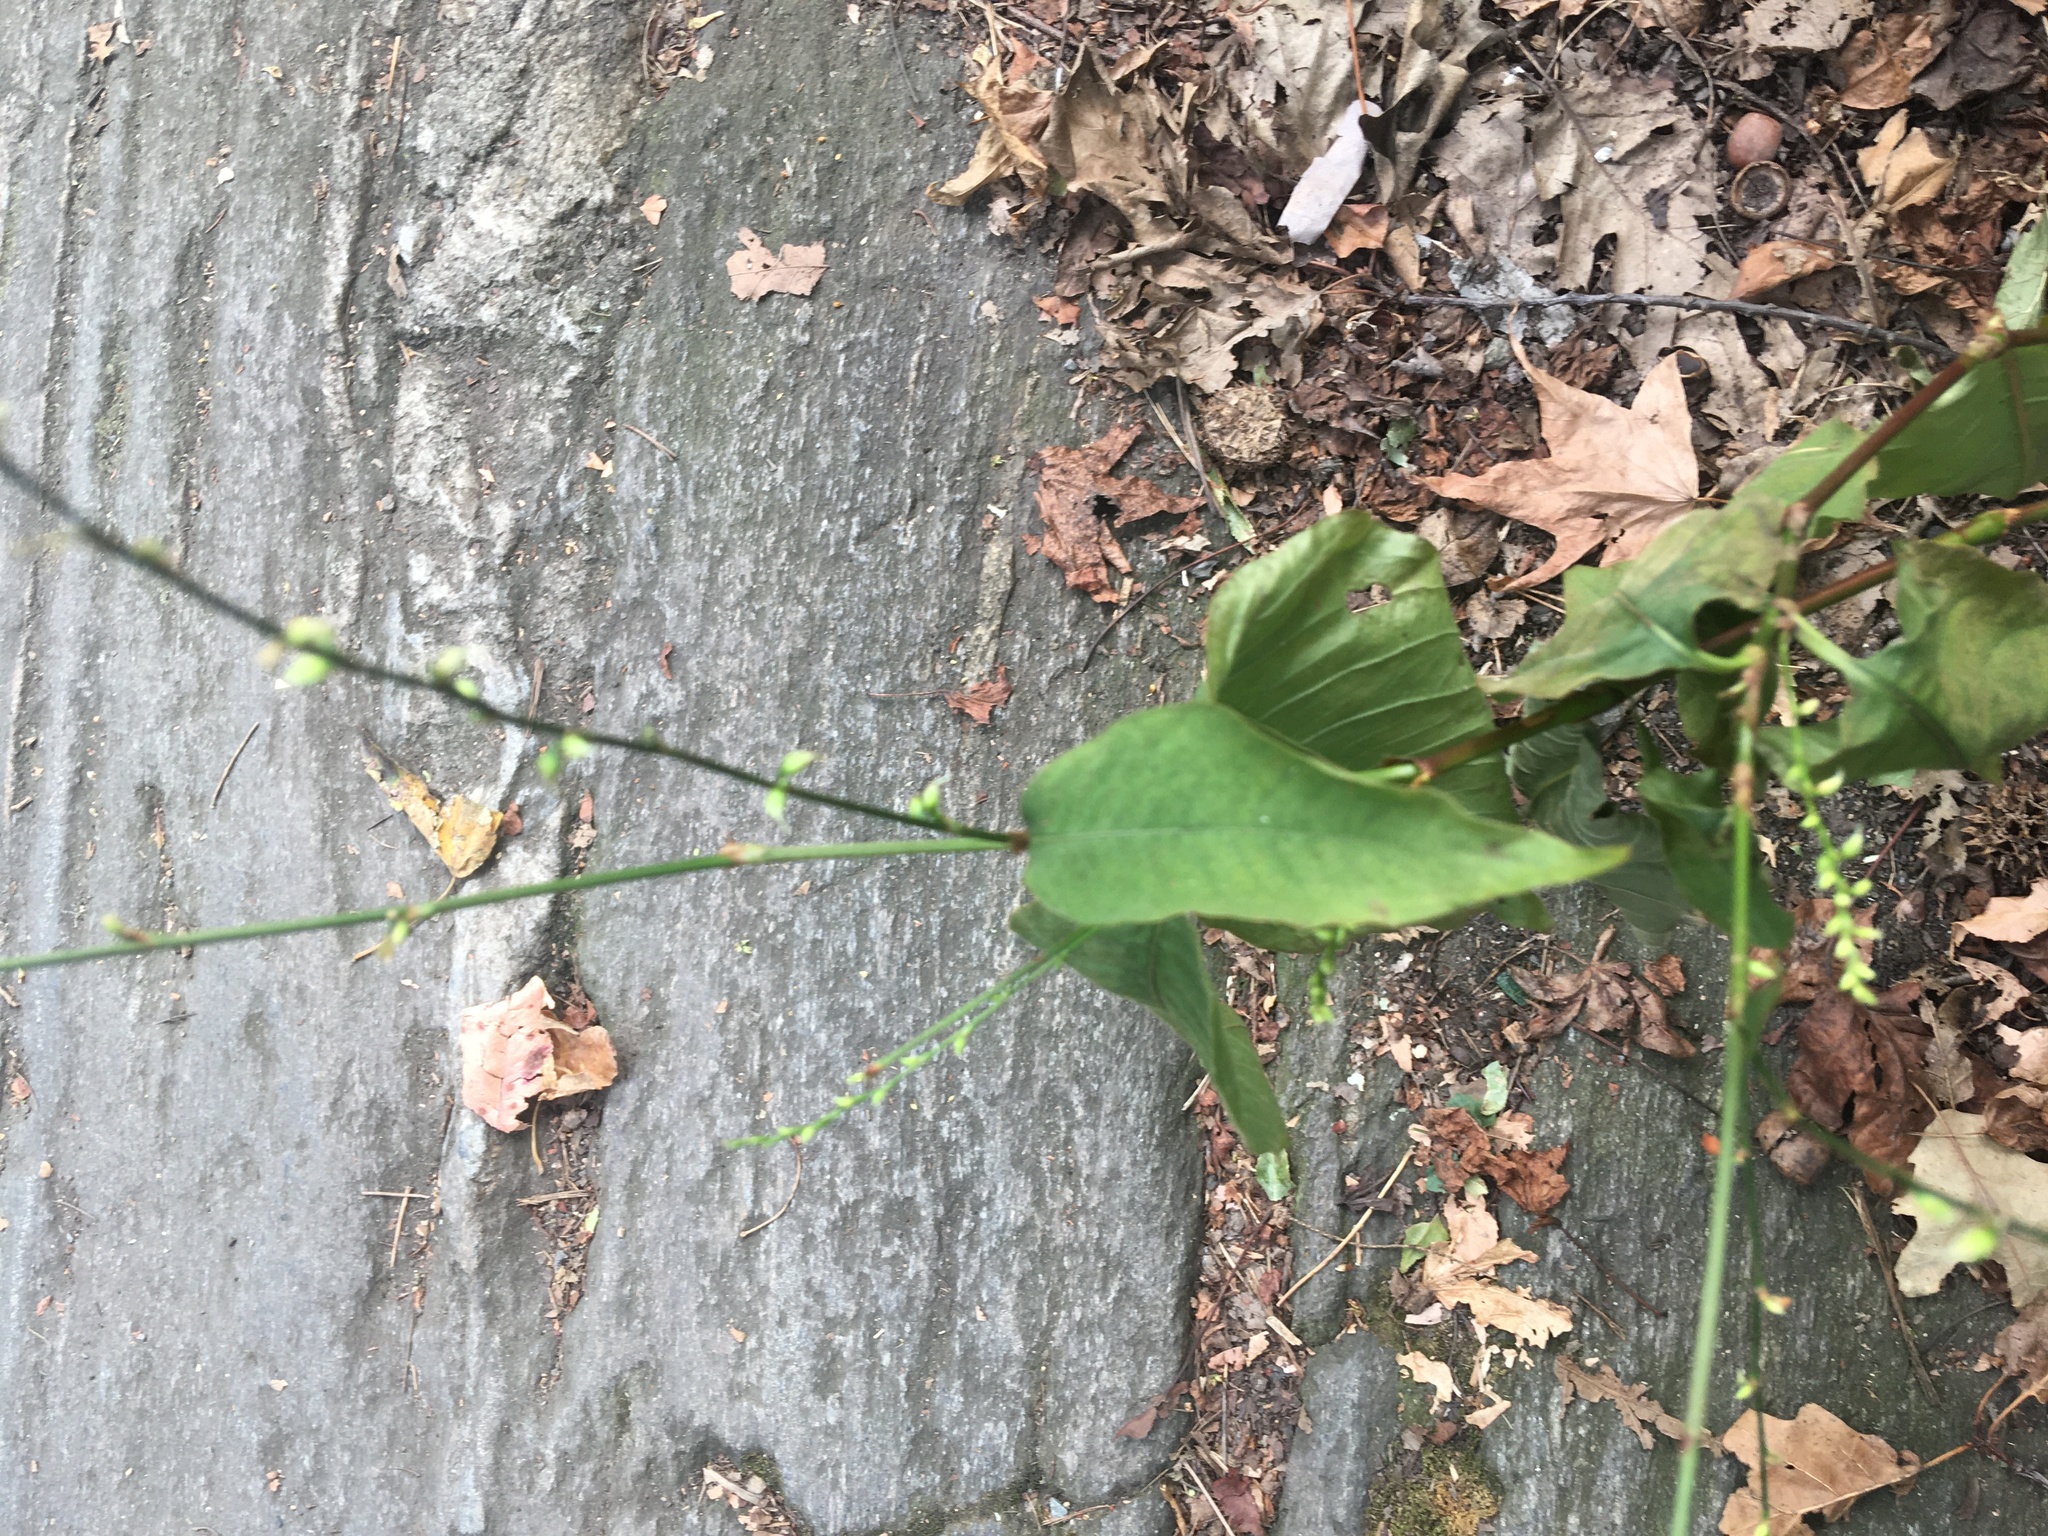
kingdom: Plantae
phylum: Tracheophyta
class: Magnoliopsida
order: Caryophyllales
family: Polygonaceae
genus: Persicaria
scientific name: Persicaria virginiana
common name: Jumpseed
